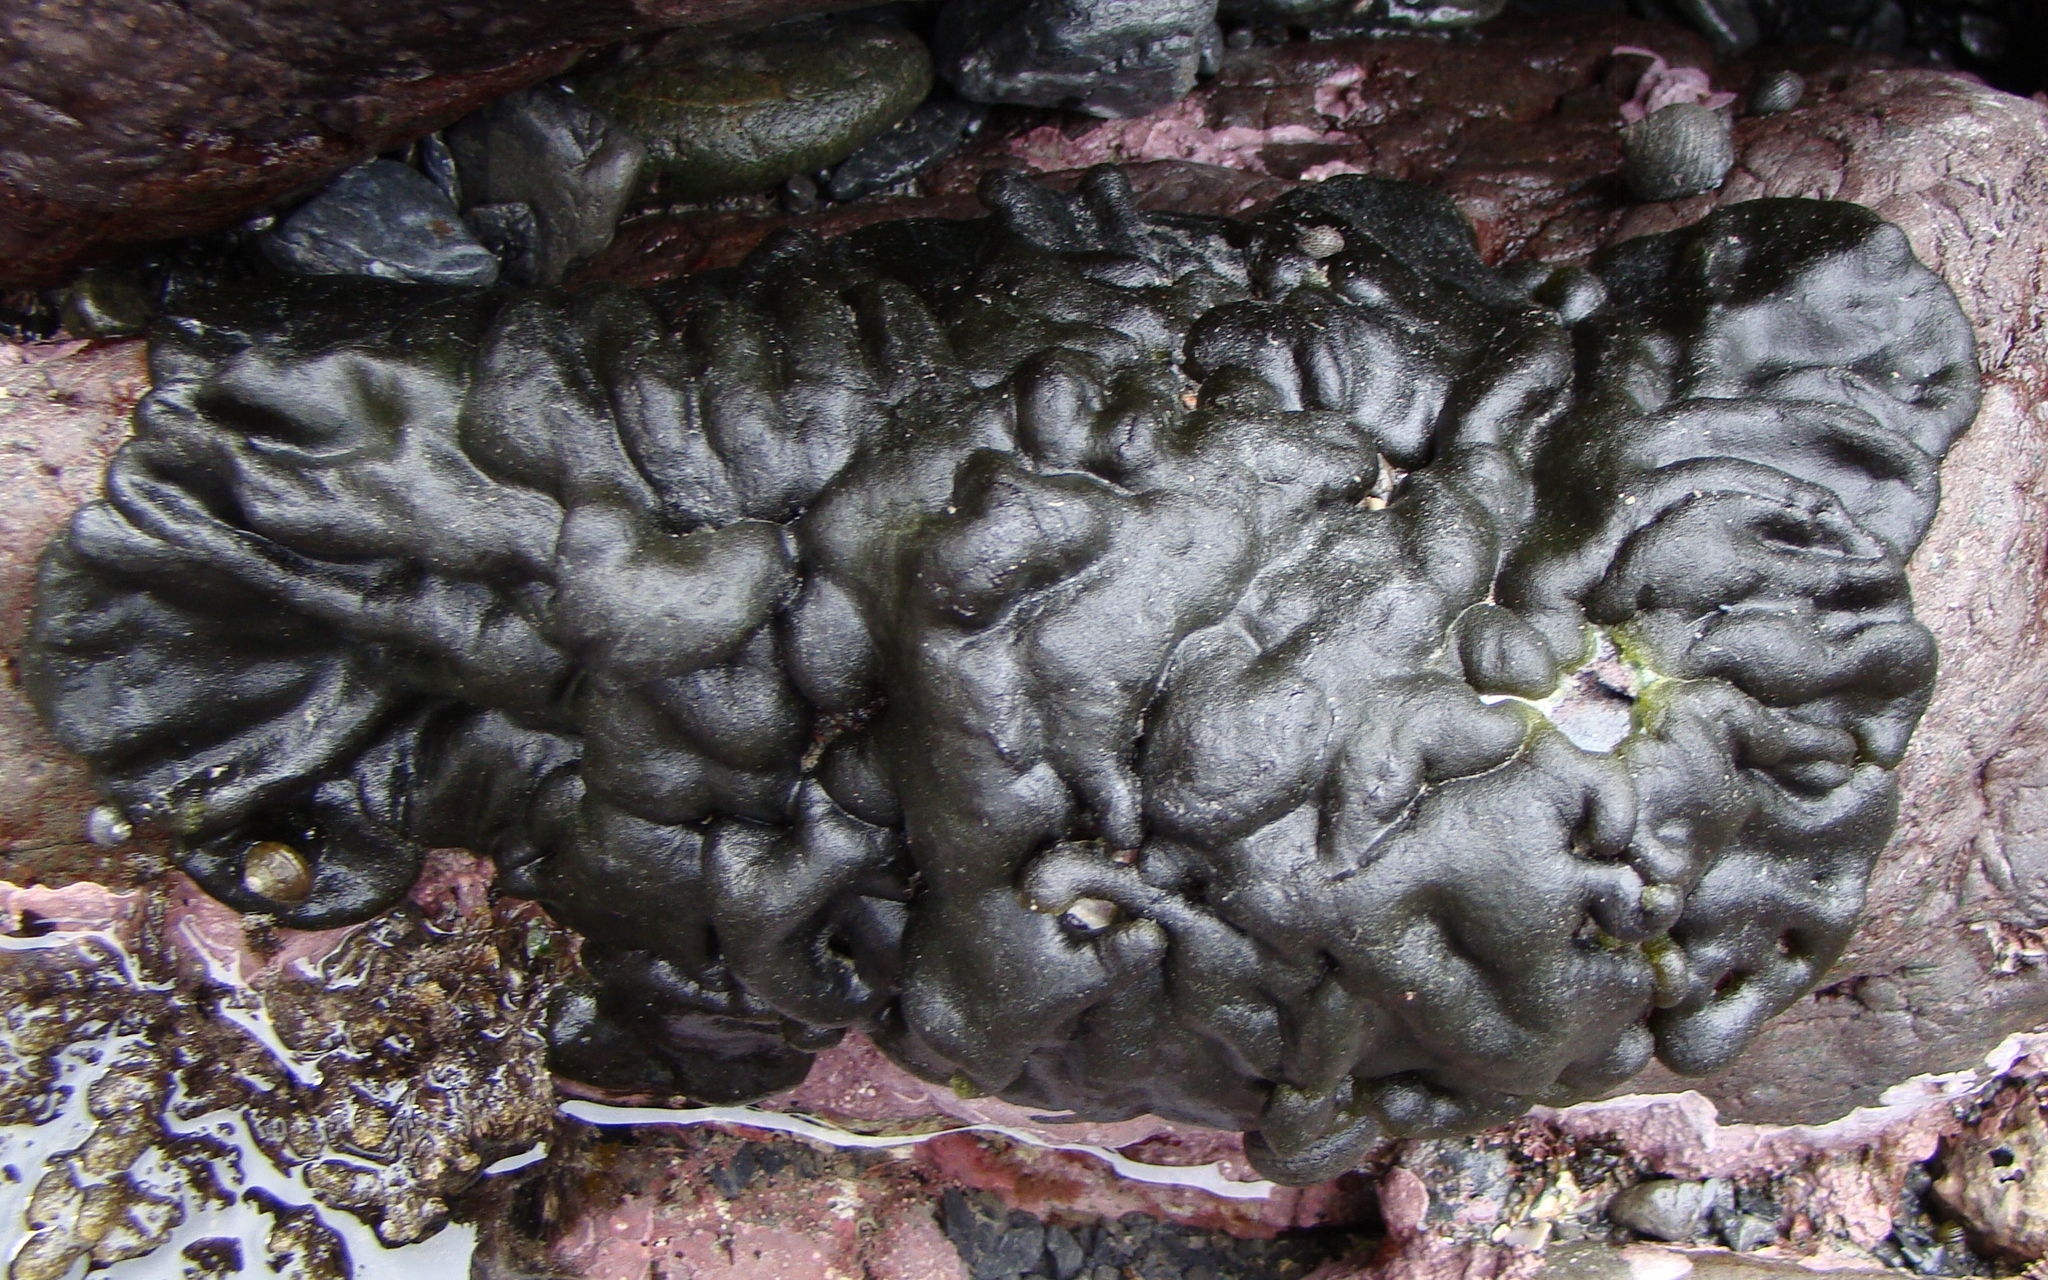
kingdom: Plantae
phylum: Chlorophyta
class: Ulvophyceae
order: Bryopsidales
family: Codiaceae
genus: Codium
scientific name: Codium convolutum
